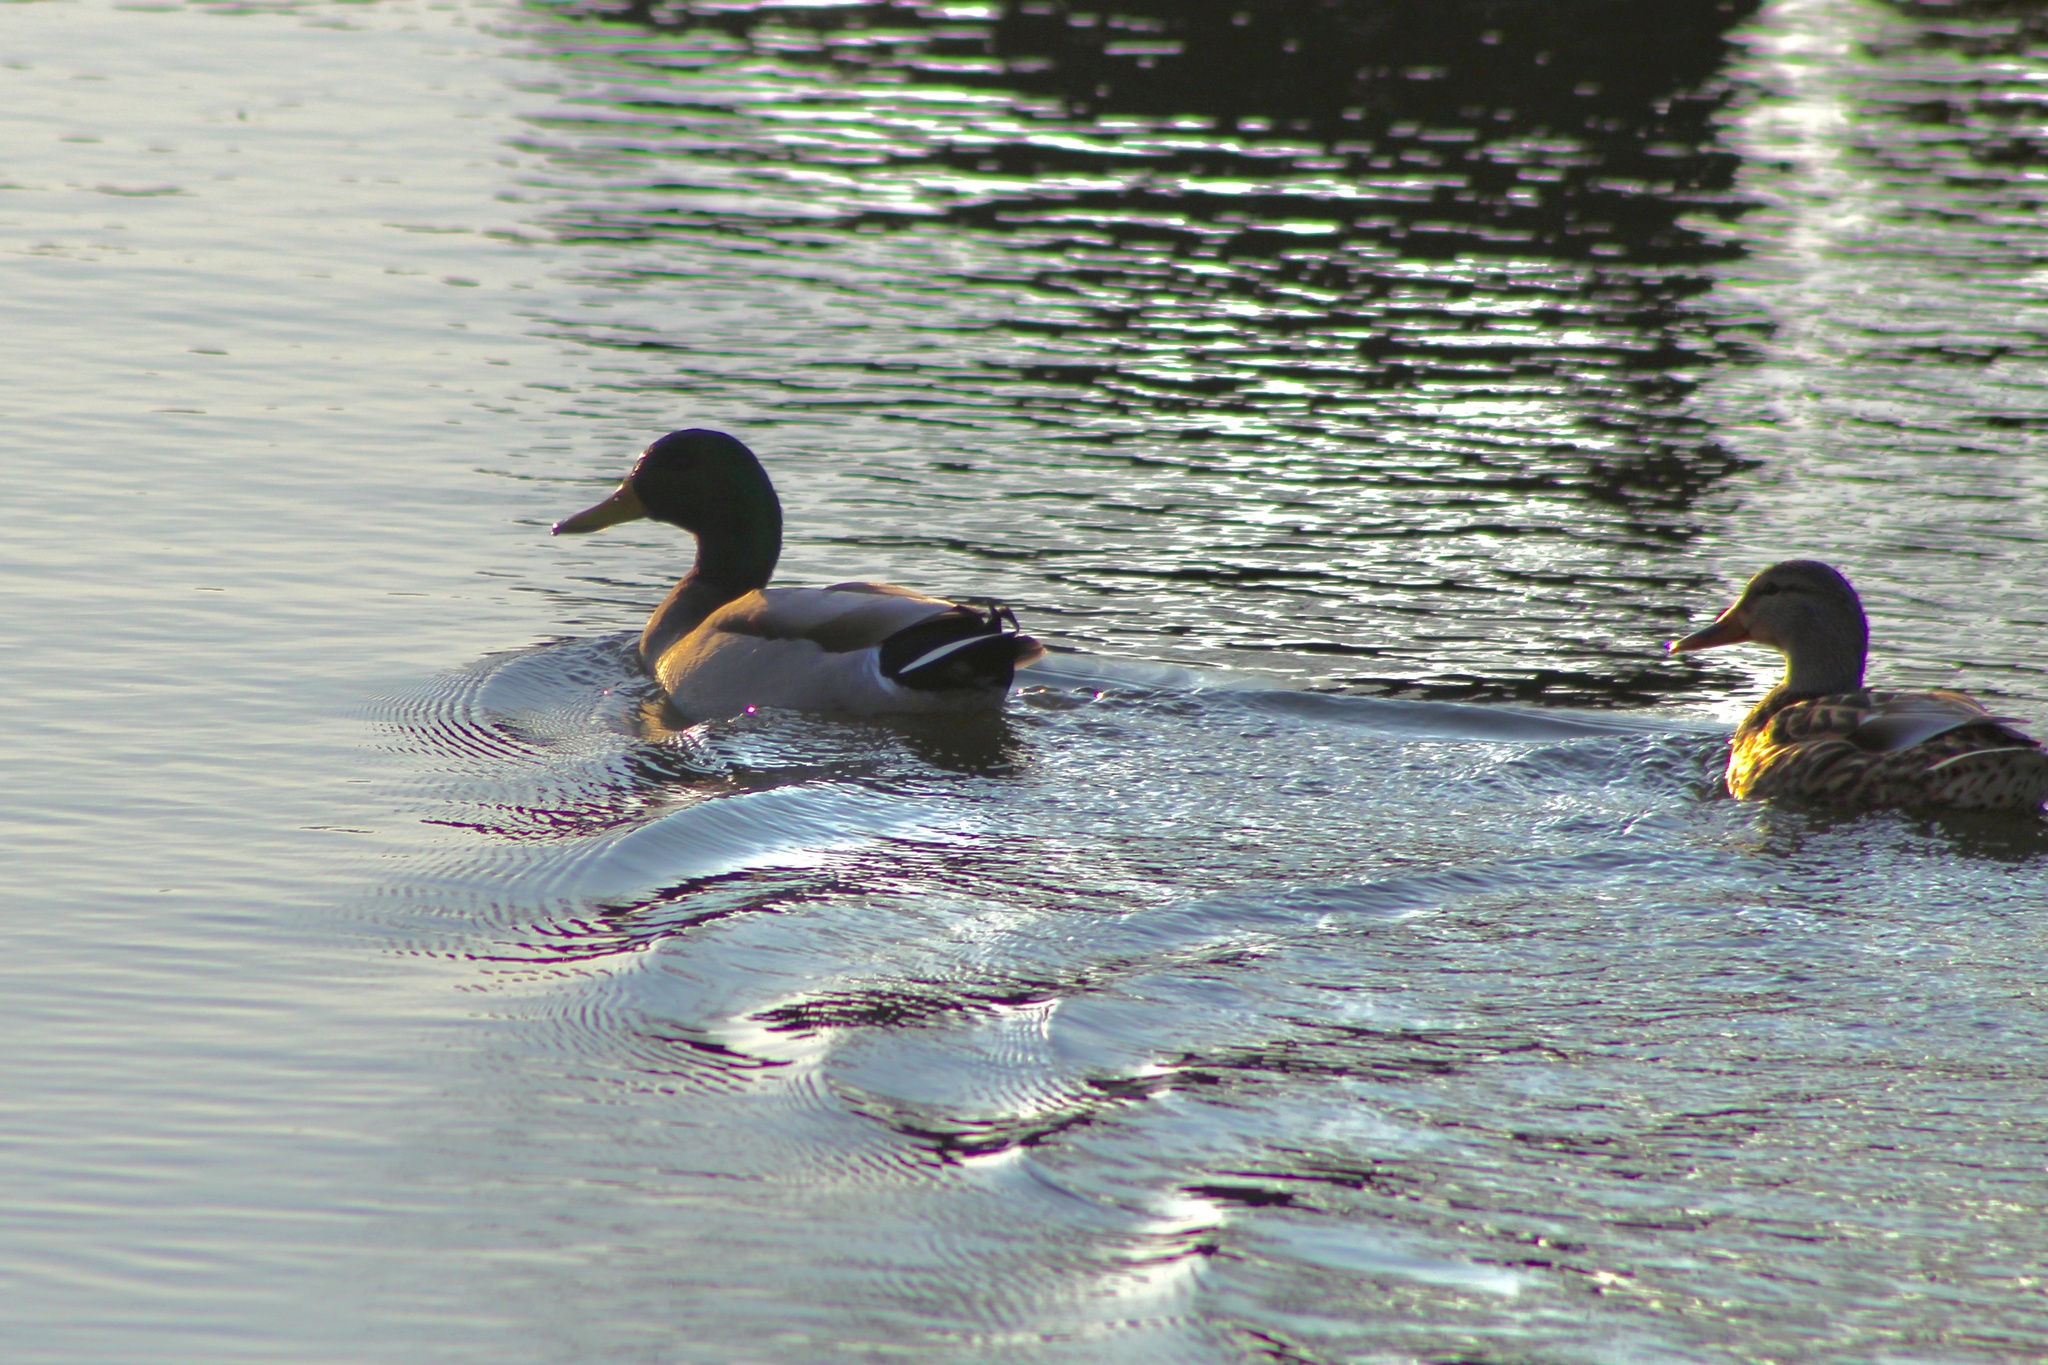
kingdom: Animalia
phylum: Chordata
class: Aves
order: Anseriformes
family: Anatidae
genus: Anas
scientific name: Anas platyrhynchos
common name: Mallard
